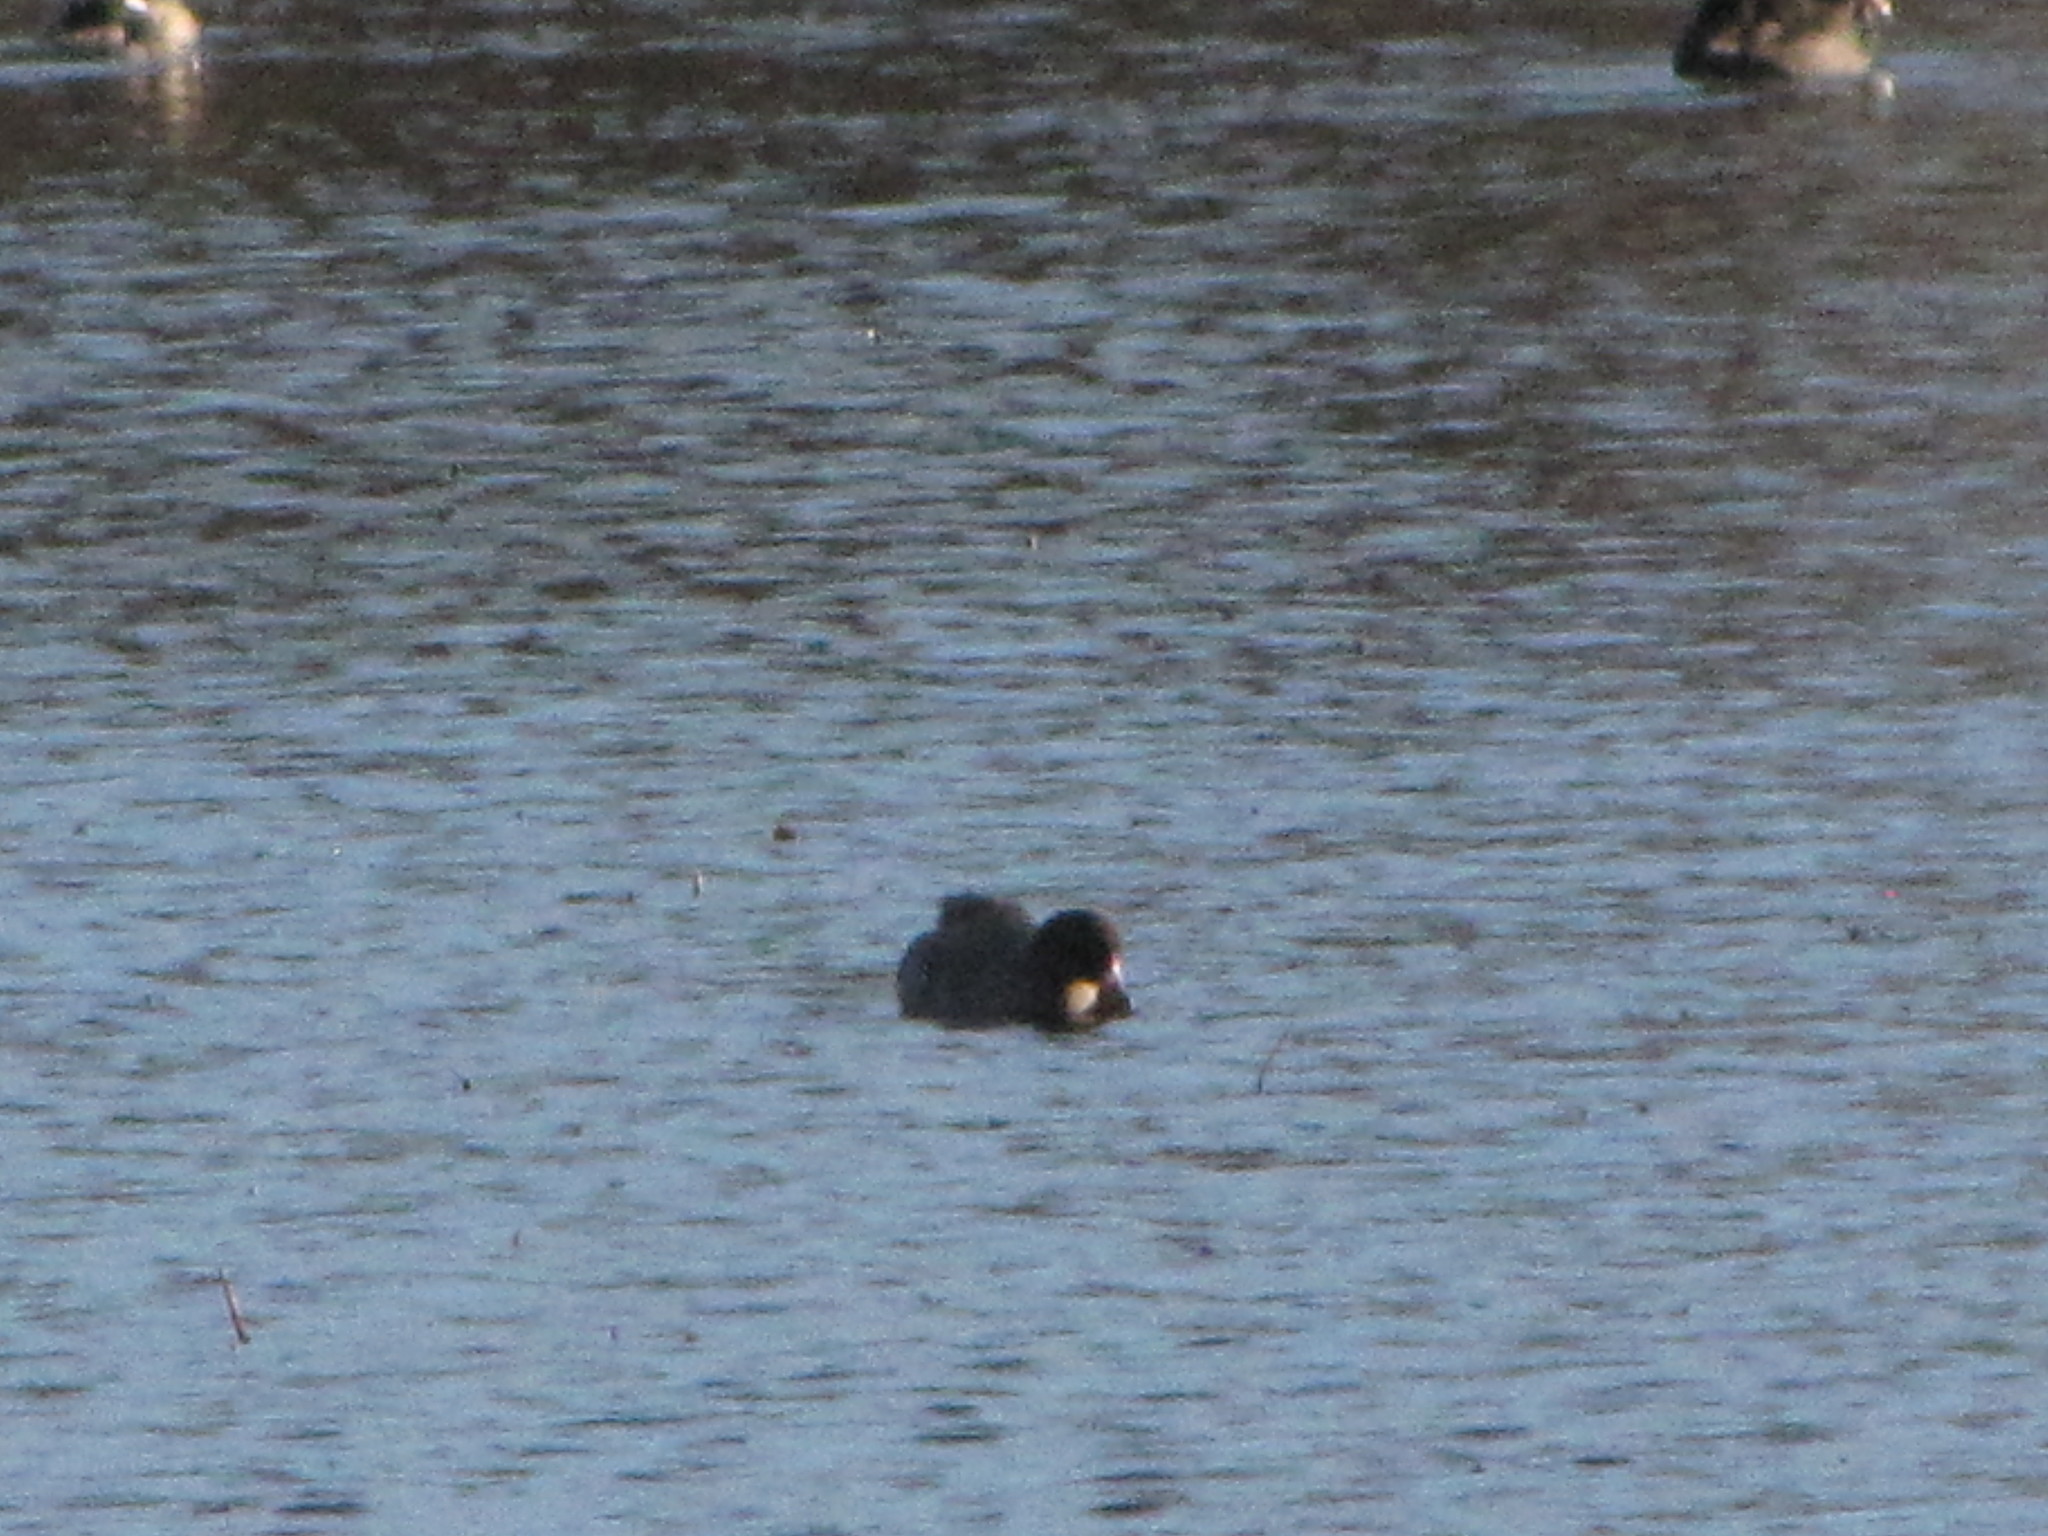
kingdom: Animalia
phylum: Chordata
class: Aves
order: Gruiformes
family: Rallidae
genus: Fulica
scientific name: Fulica americana
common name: American coot
